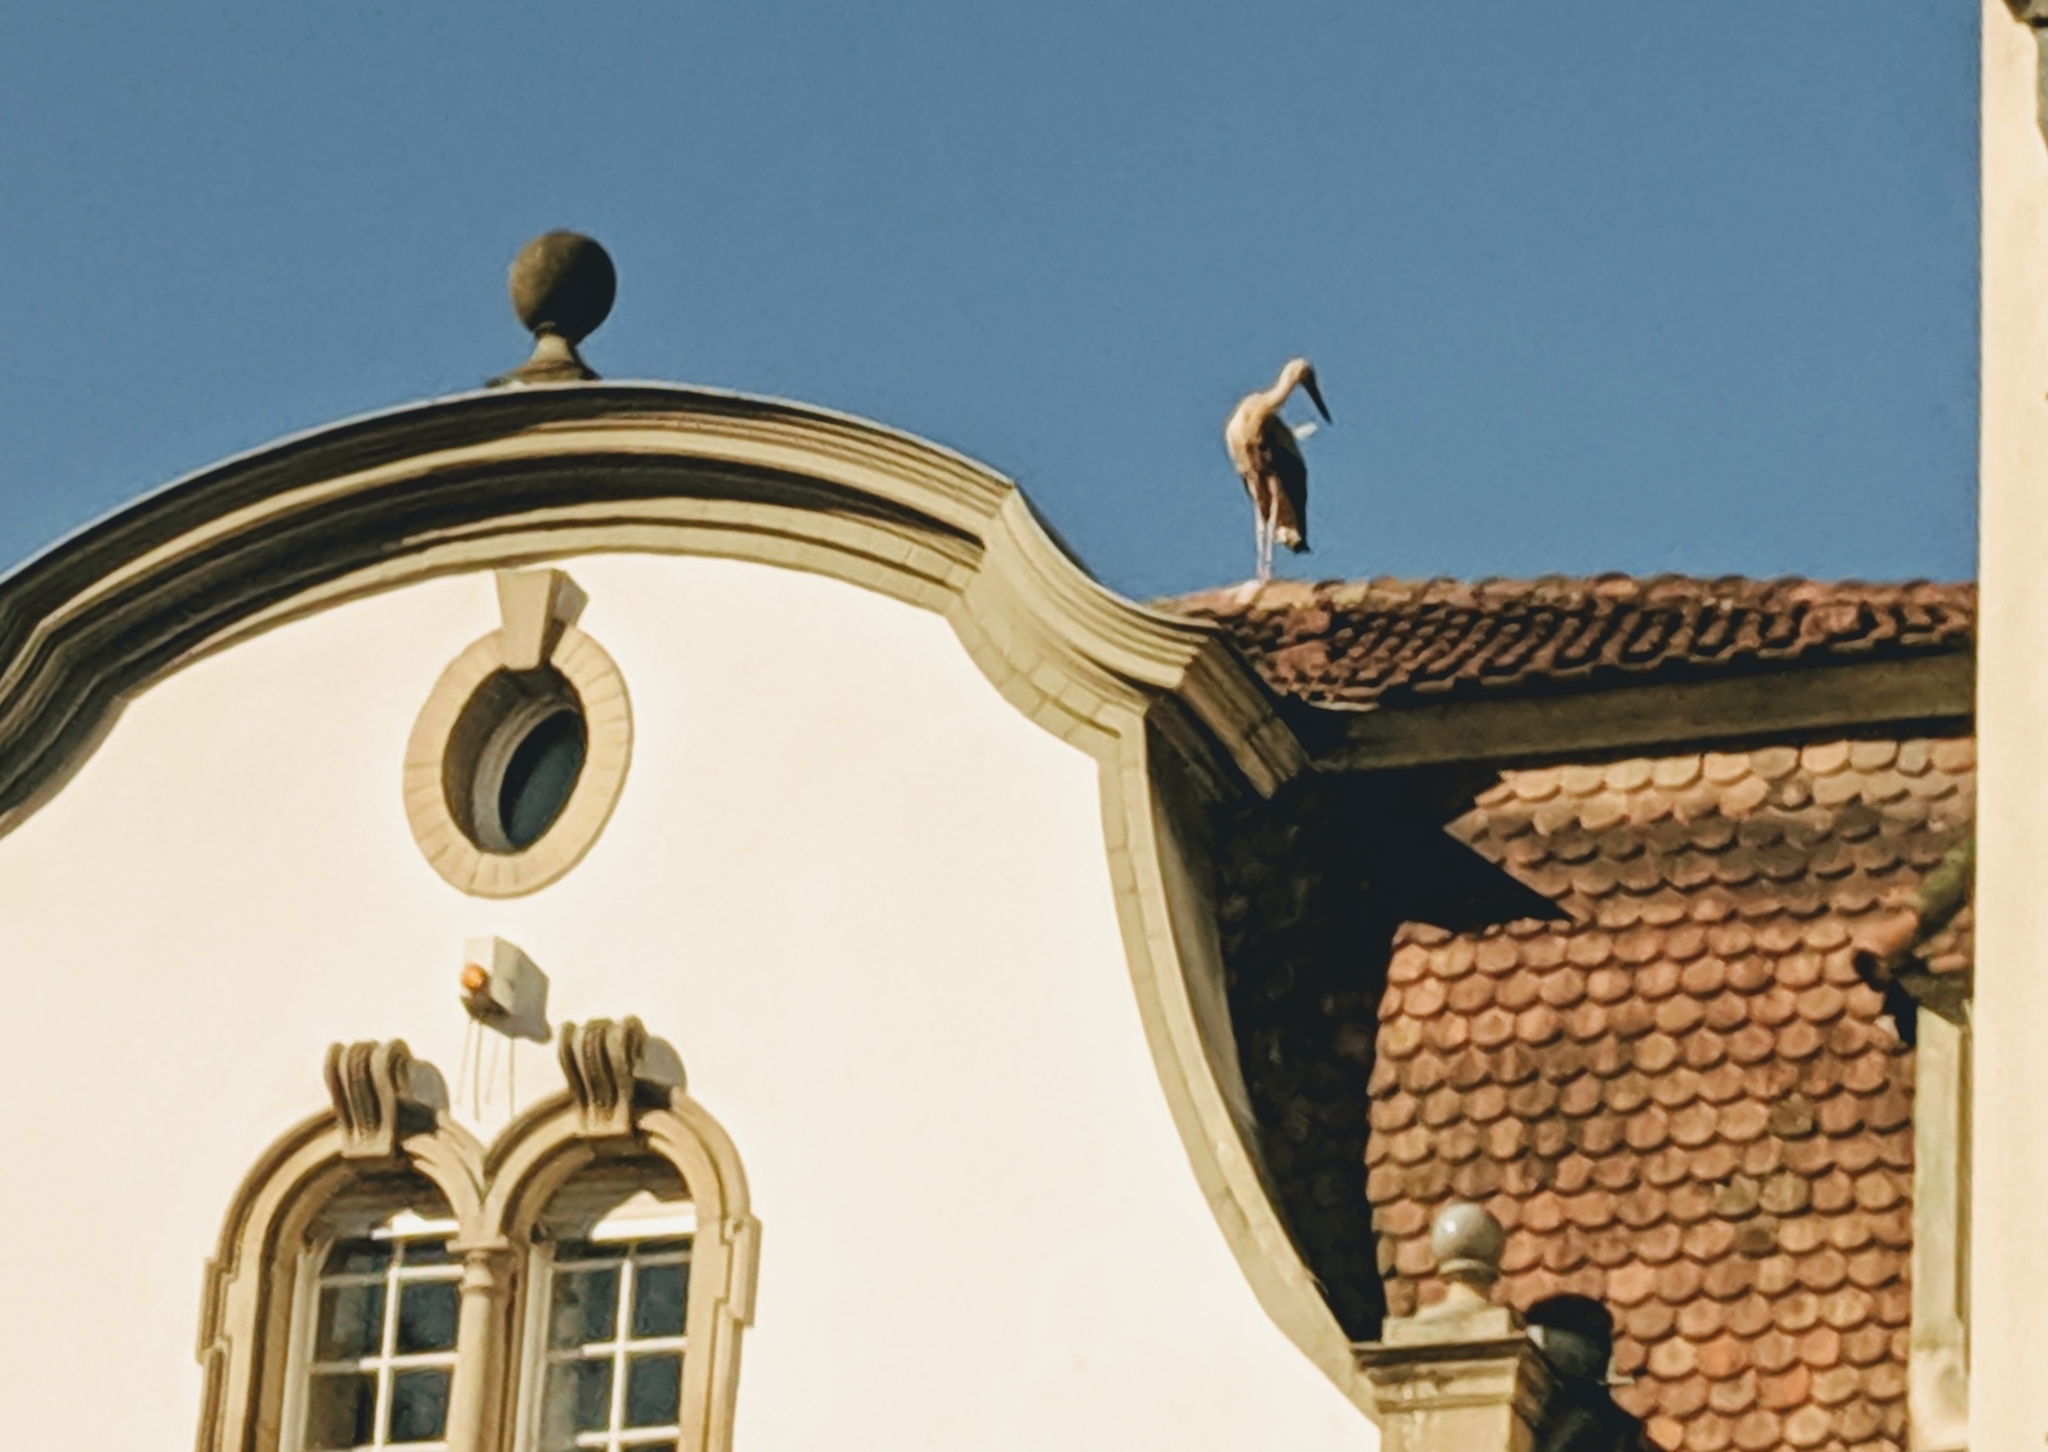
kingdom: Animalia
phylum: Chordata
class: Aves
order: Ciconiiformes
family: Ciconiidae
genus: Ciconia
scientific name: Ciconia ciconia
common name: White stork
